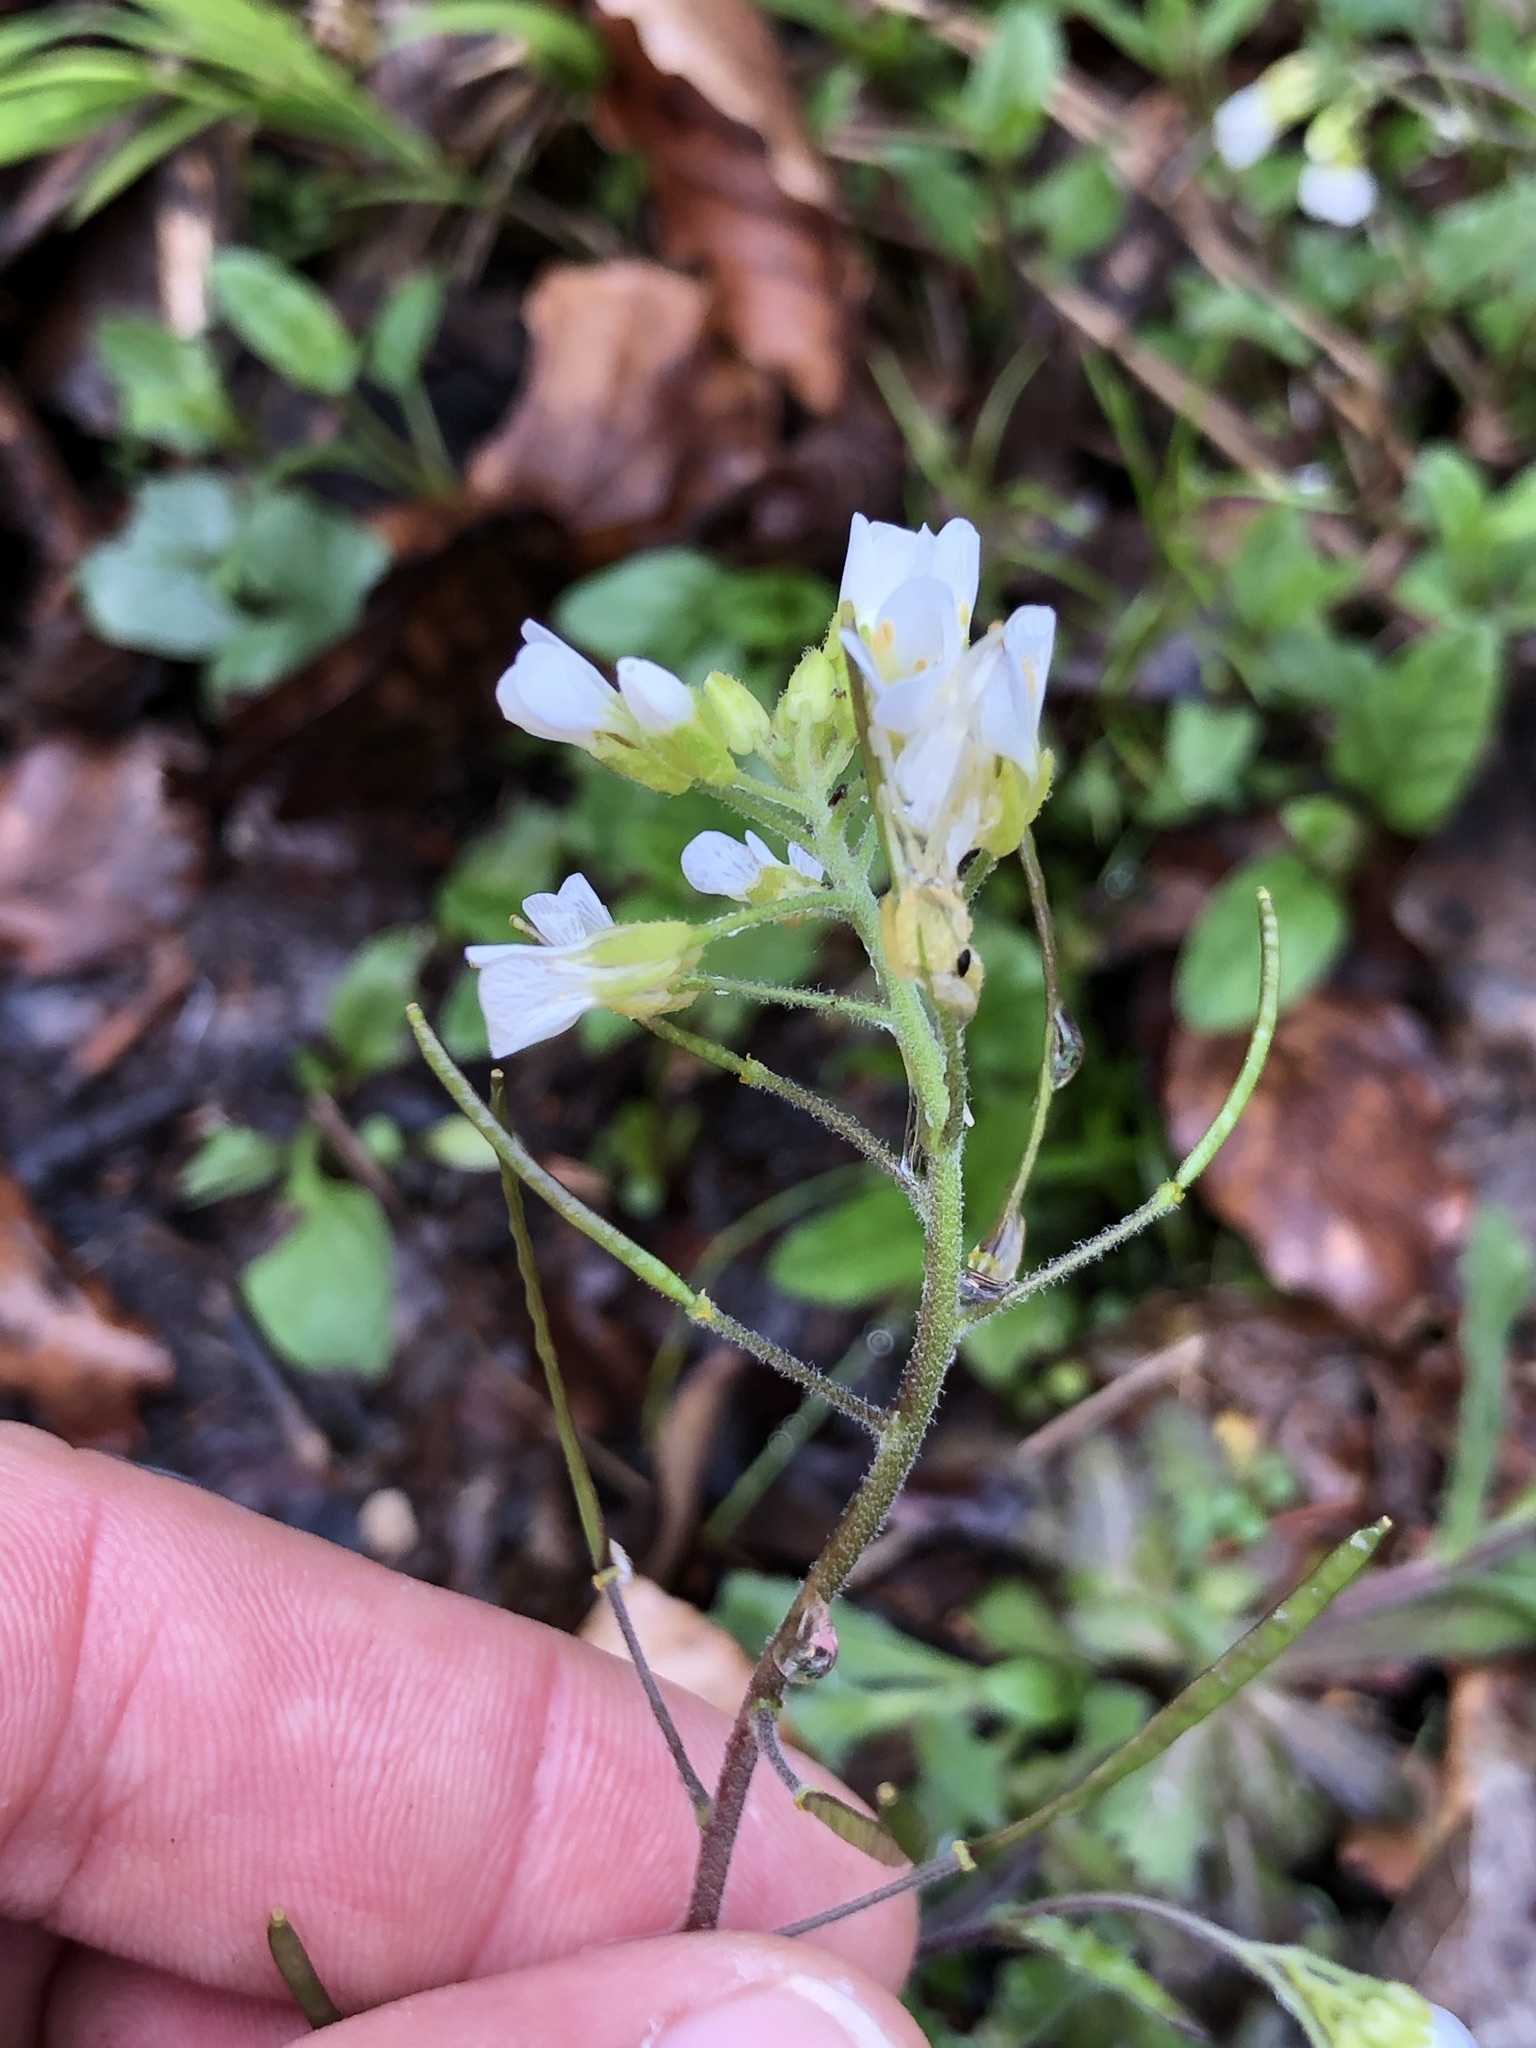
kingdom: Plantae
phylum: Tracheophyta
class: Magnoliopsida
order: Brassicales
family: Brassicaceae
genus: Arabis
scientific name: Arabis alpina
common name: Alpine rock-cress
